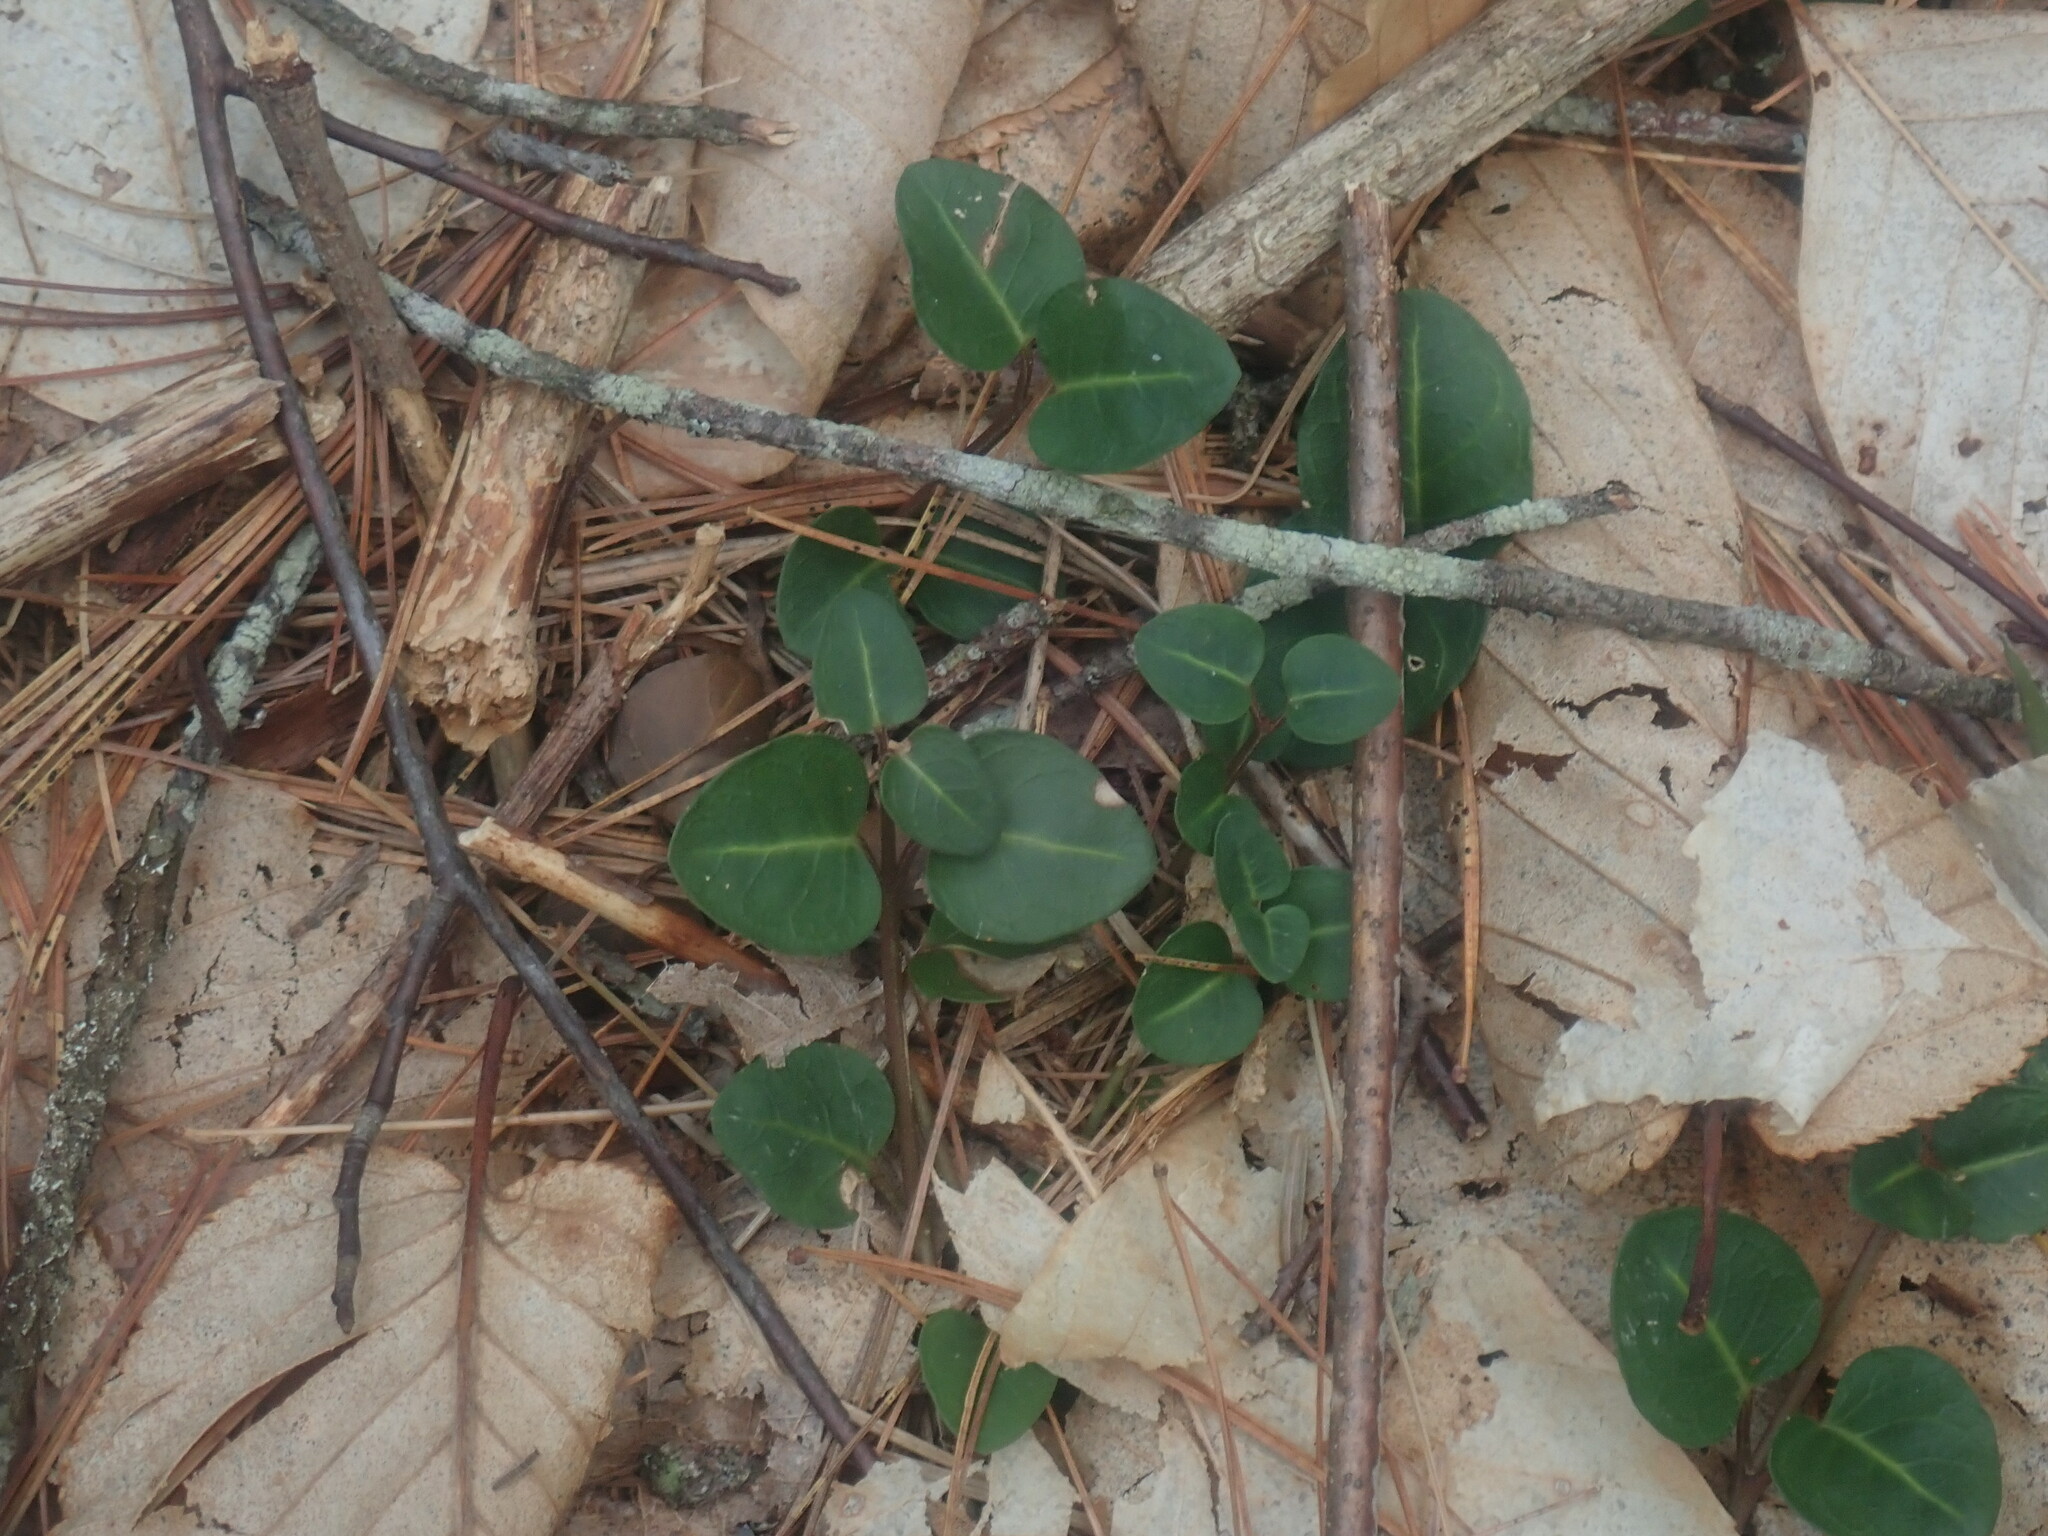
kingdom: Plantae
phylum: Tracheophyta
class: Magnoliopsida
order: Gentianales
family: Rubiaceae
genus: Mitchella
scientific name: Mitchella repens
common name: Partridge-berry
